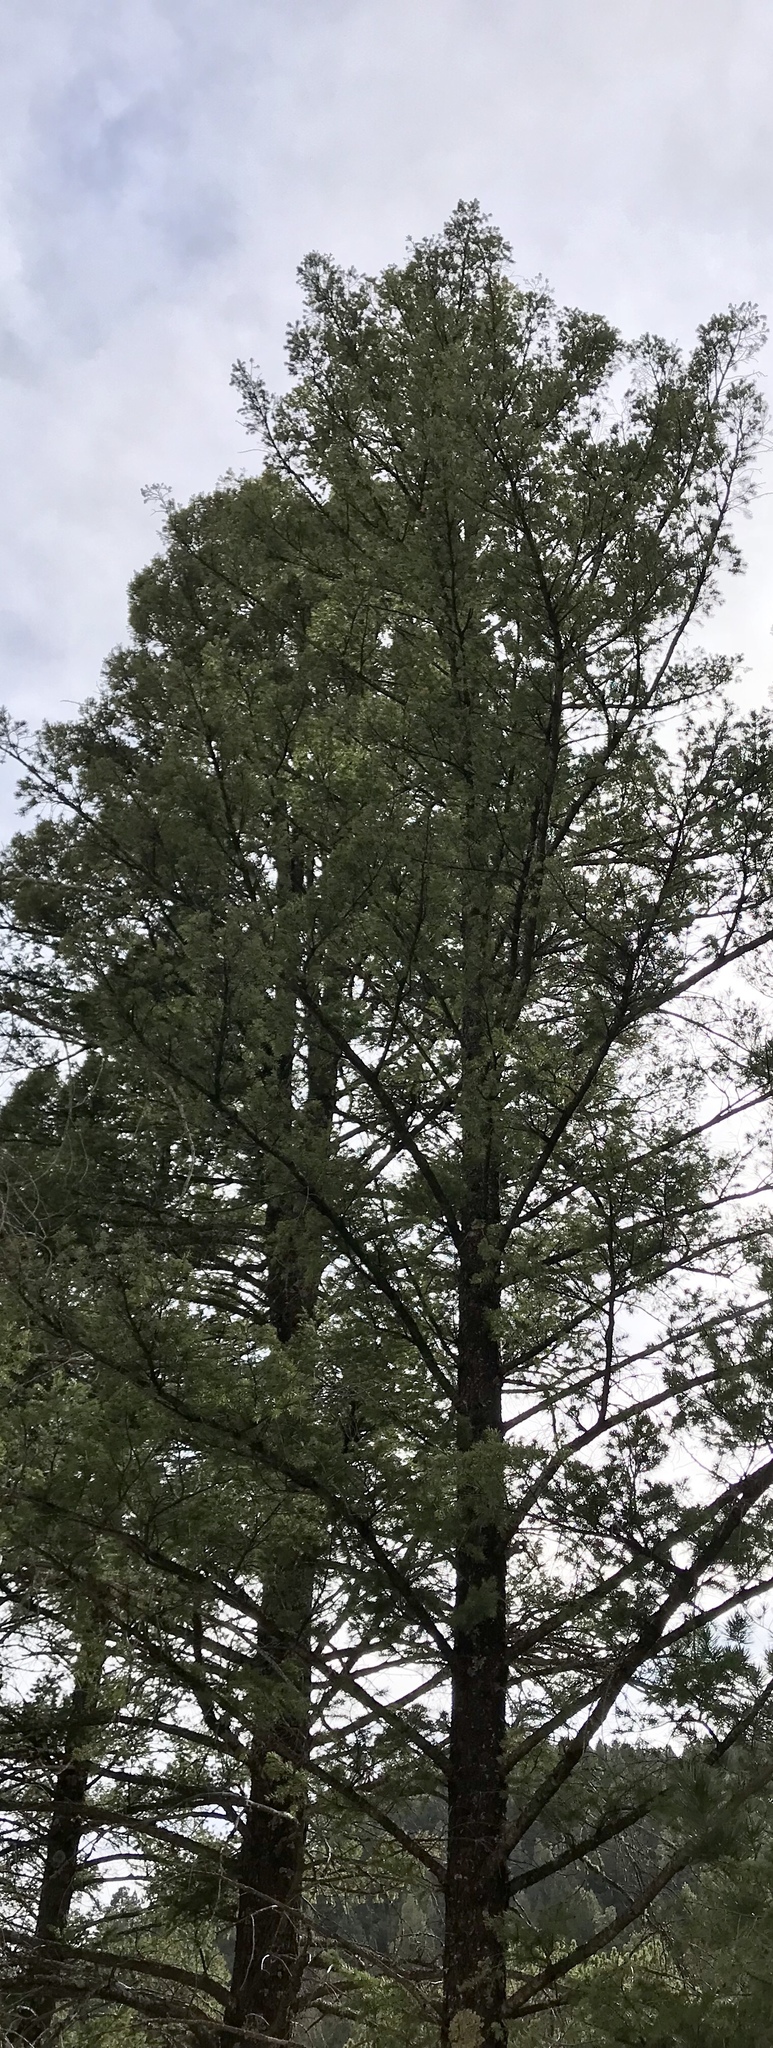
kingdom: Plantae
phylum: Tracheophyta
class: Pinopsida
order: Pinales
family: Pinaceae
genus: Pseudotsuga
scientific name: Pseudotsuga menziesii
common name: Douglas fir
